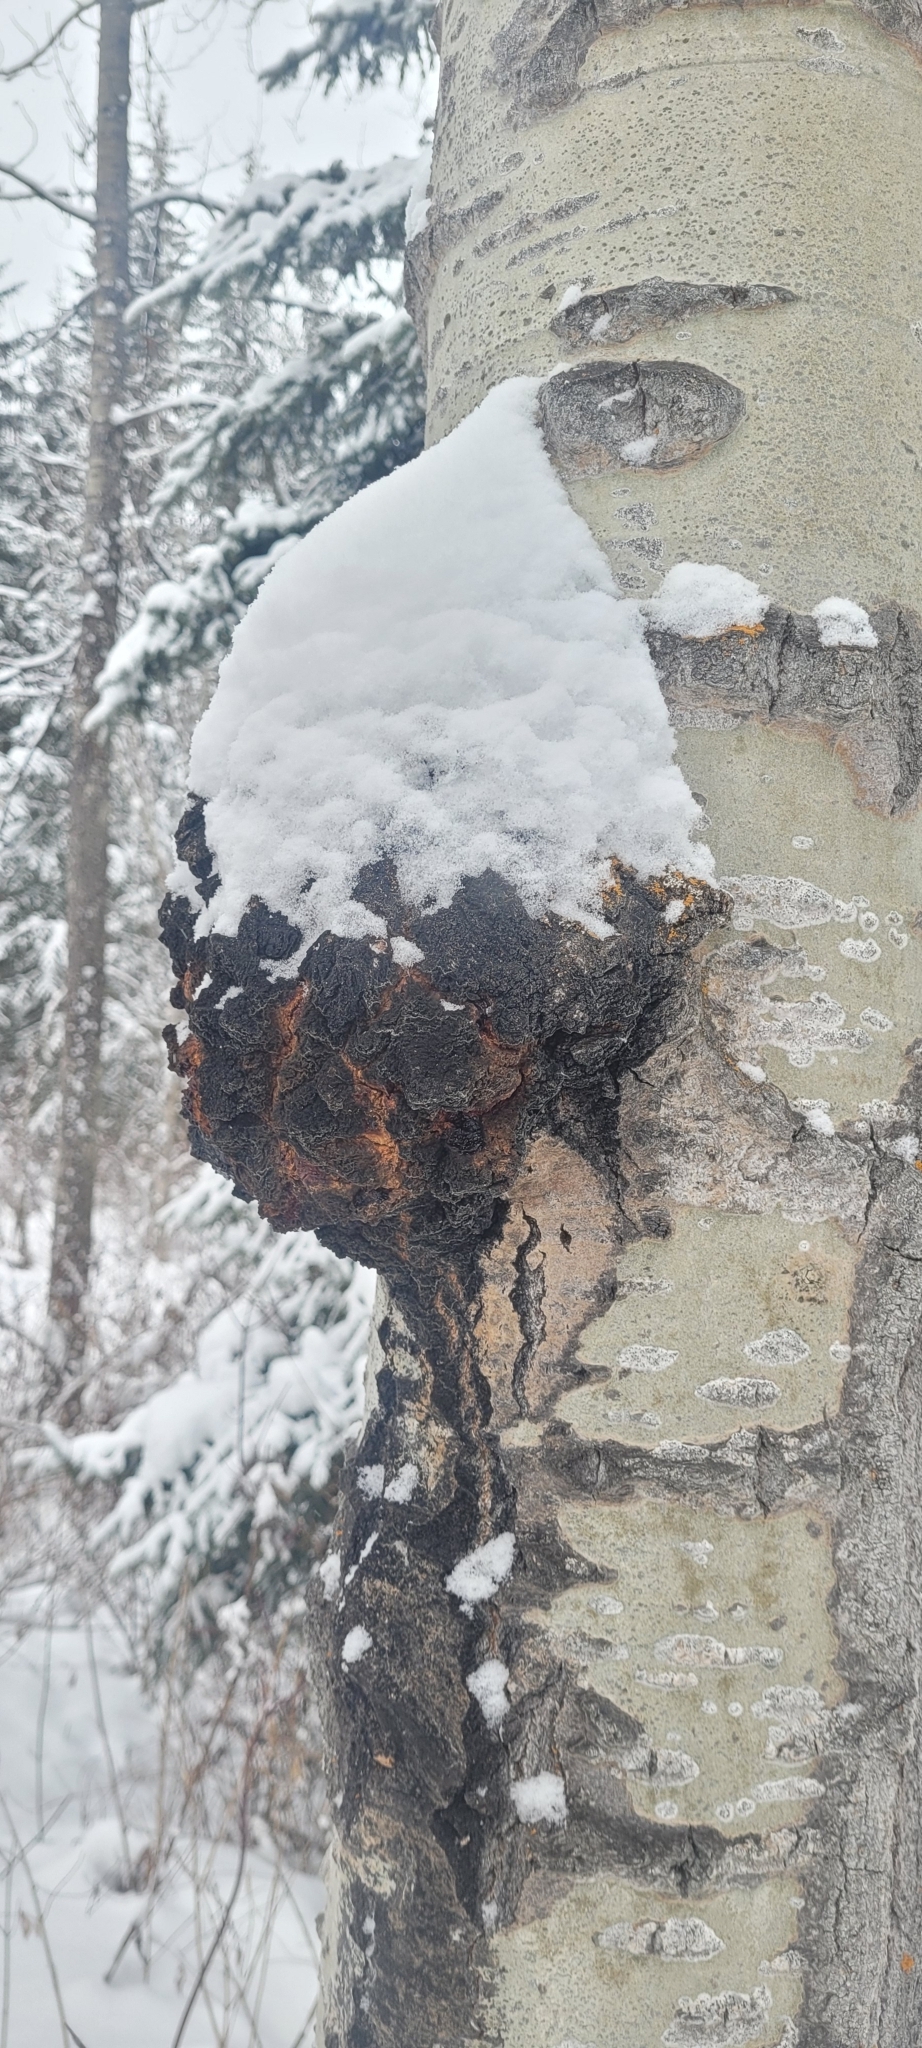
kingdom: Fungi
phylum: Ascomycota
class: Dothideomycetes
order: Botryosphaeriales
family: Botryosphaeriaceae
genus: Diplodia
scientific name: Diplodia tumefaciens
